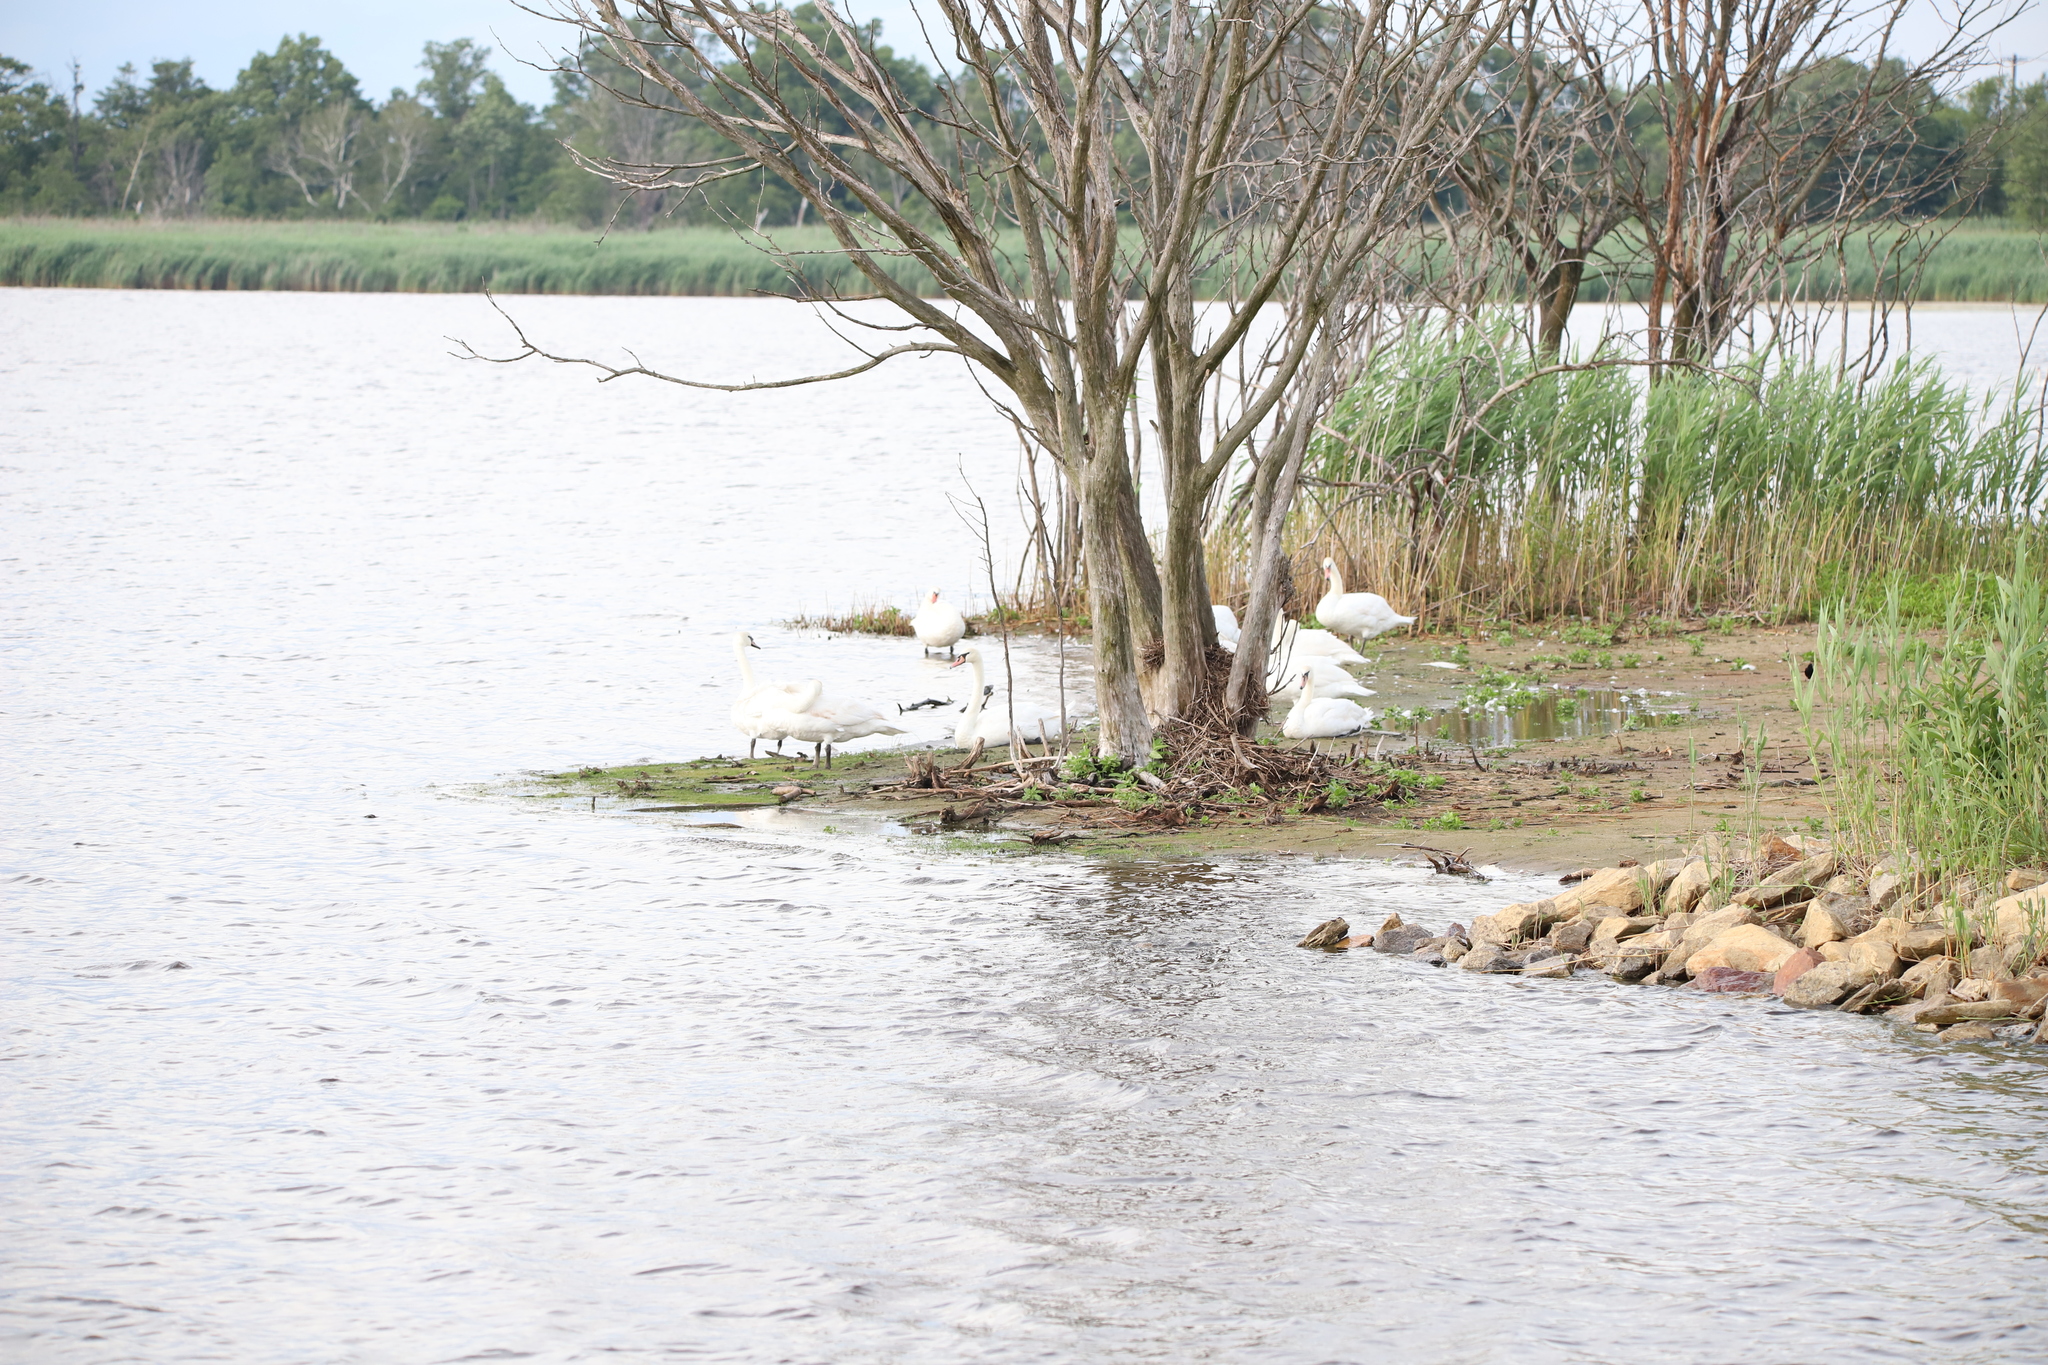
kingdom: Animalia
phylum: Chordata
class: Aves
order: Anseriformes
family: Anatidae
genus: Cygnus
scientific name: Cygnus olor
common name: Mute swan
